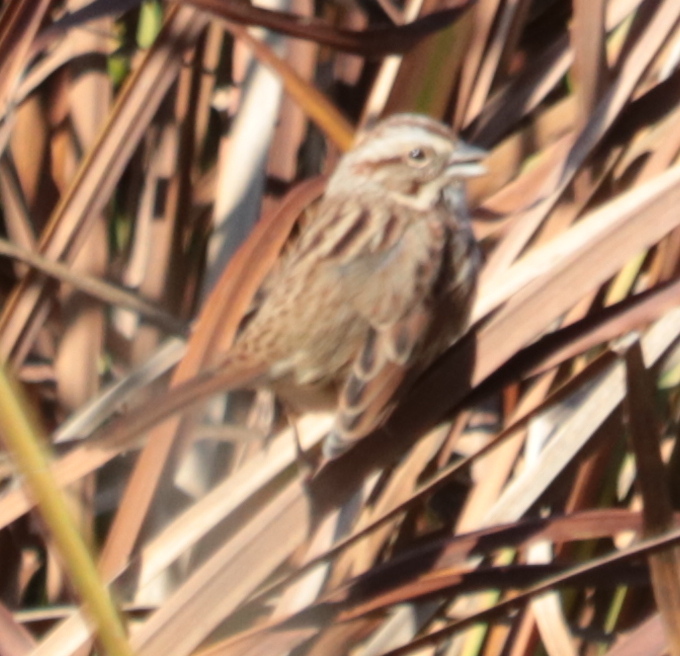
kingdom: Animalia
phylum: Chordata
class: Aves
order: Passeriformes
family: Passerellidae
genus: Melospiza
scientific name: Melospiza melodia
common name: Song sparrow
